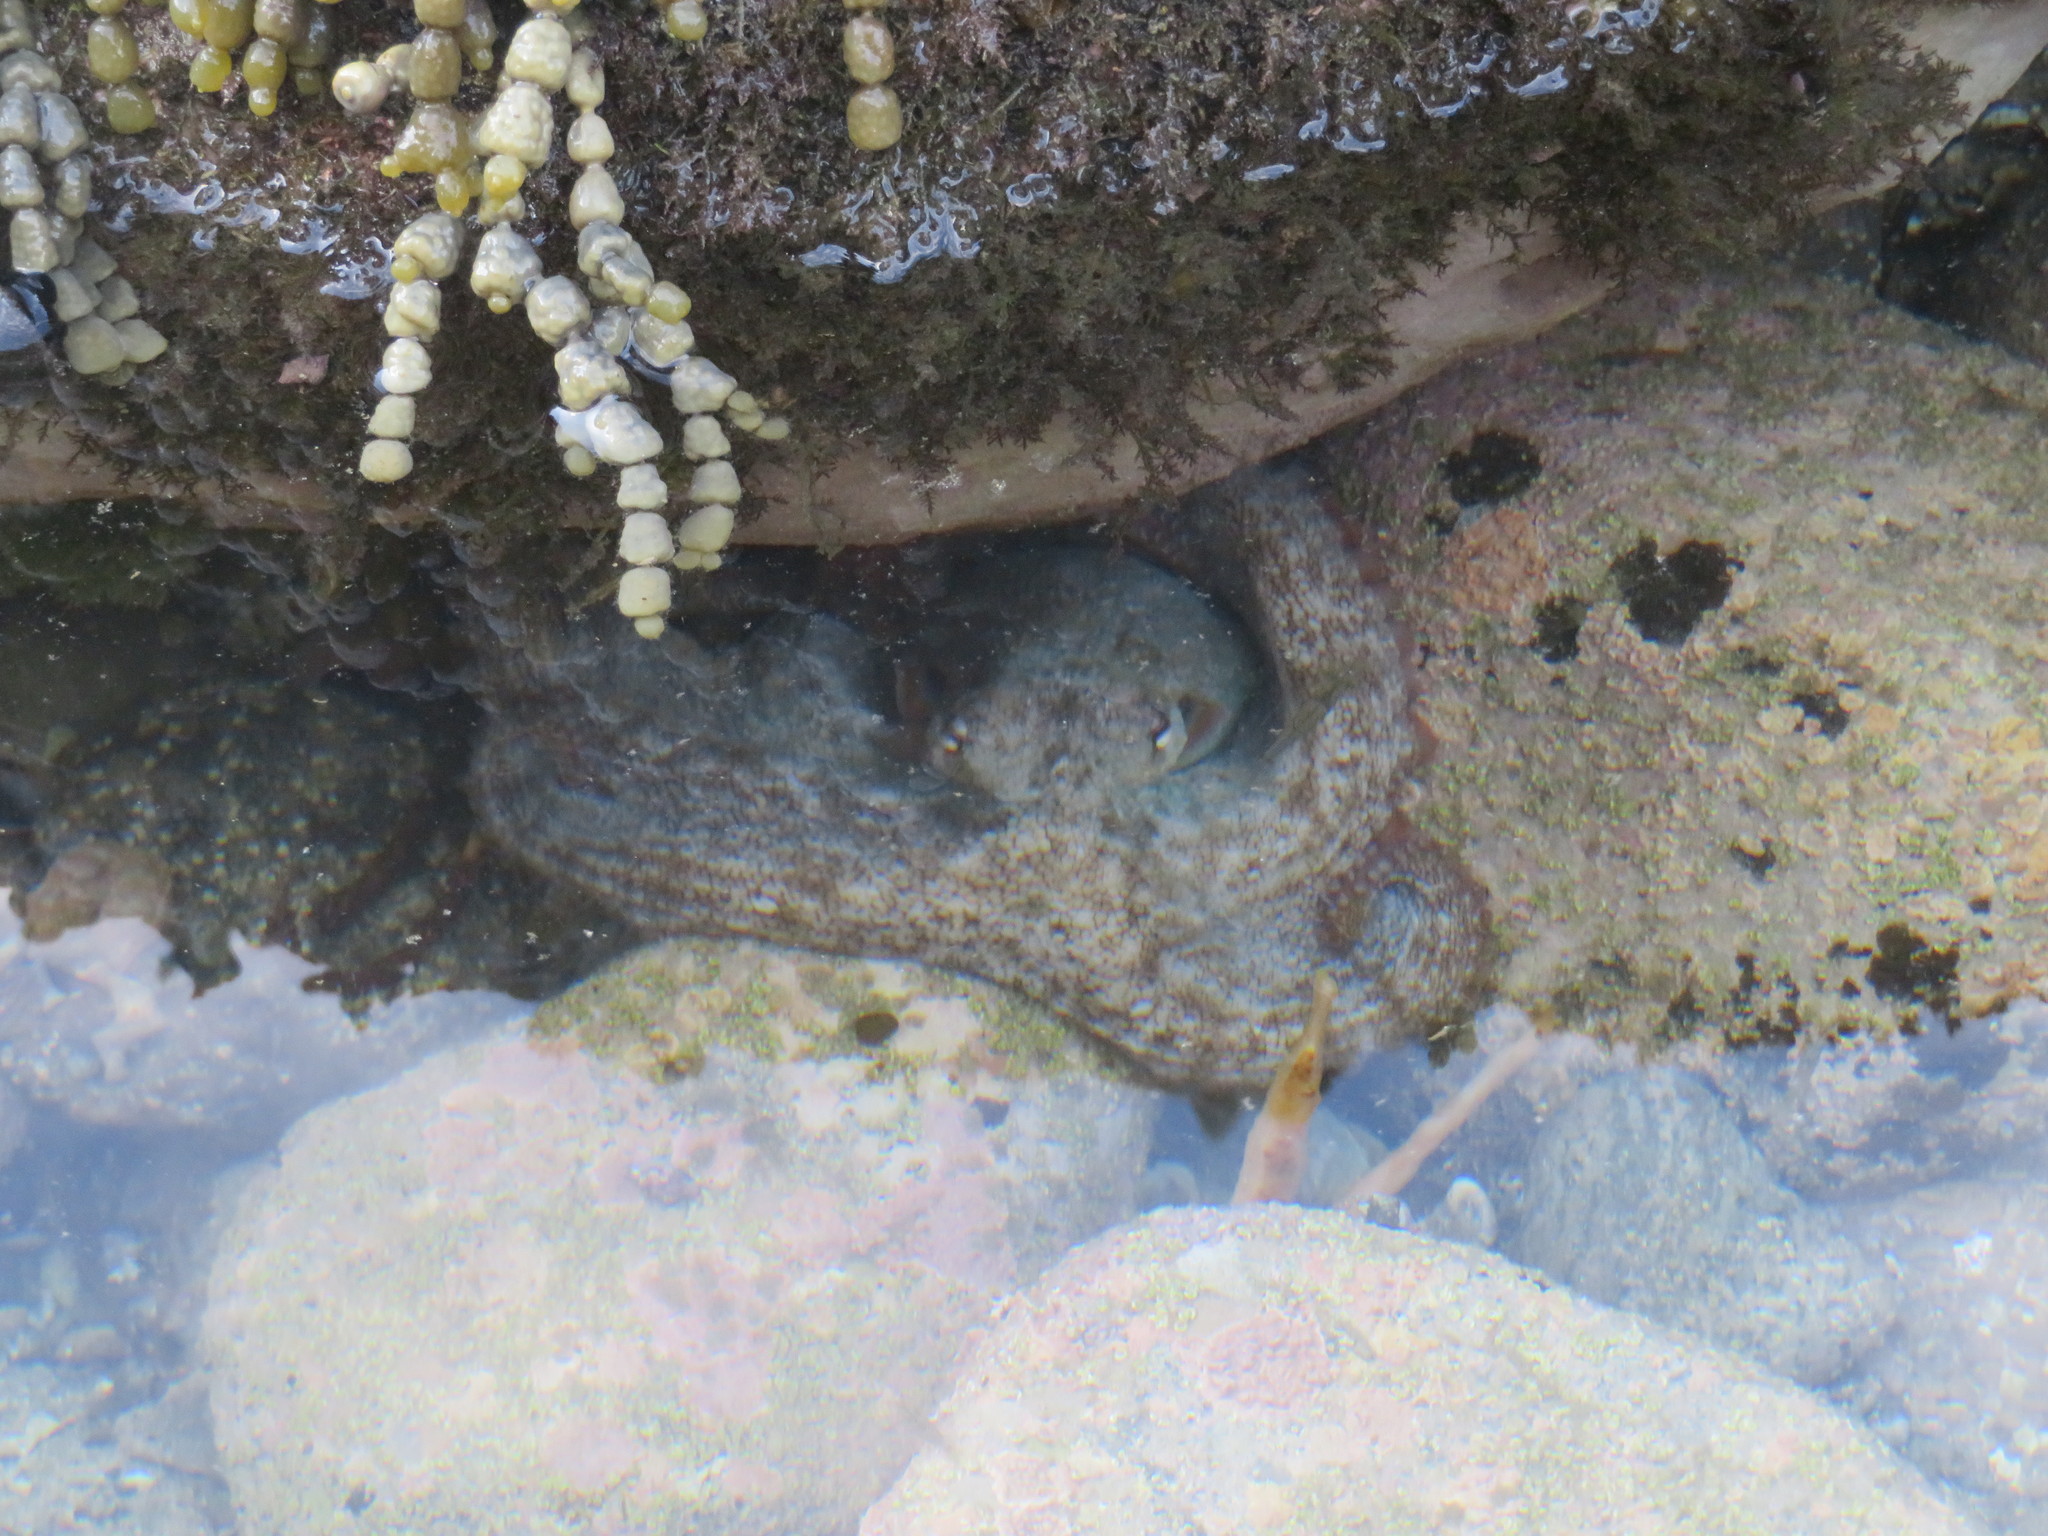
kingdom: Animalia
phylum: Mollusca
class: Cephalopoda
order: Octopoda
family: Octopodidae
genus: Octopus
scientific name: Octopus tetricus
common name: Sydney octopus
